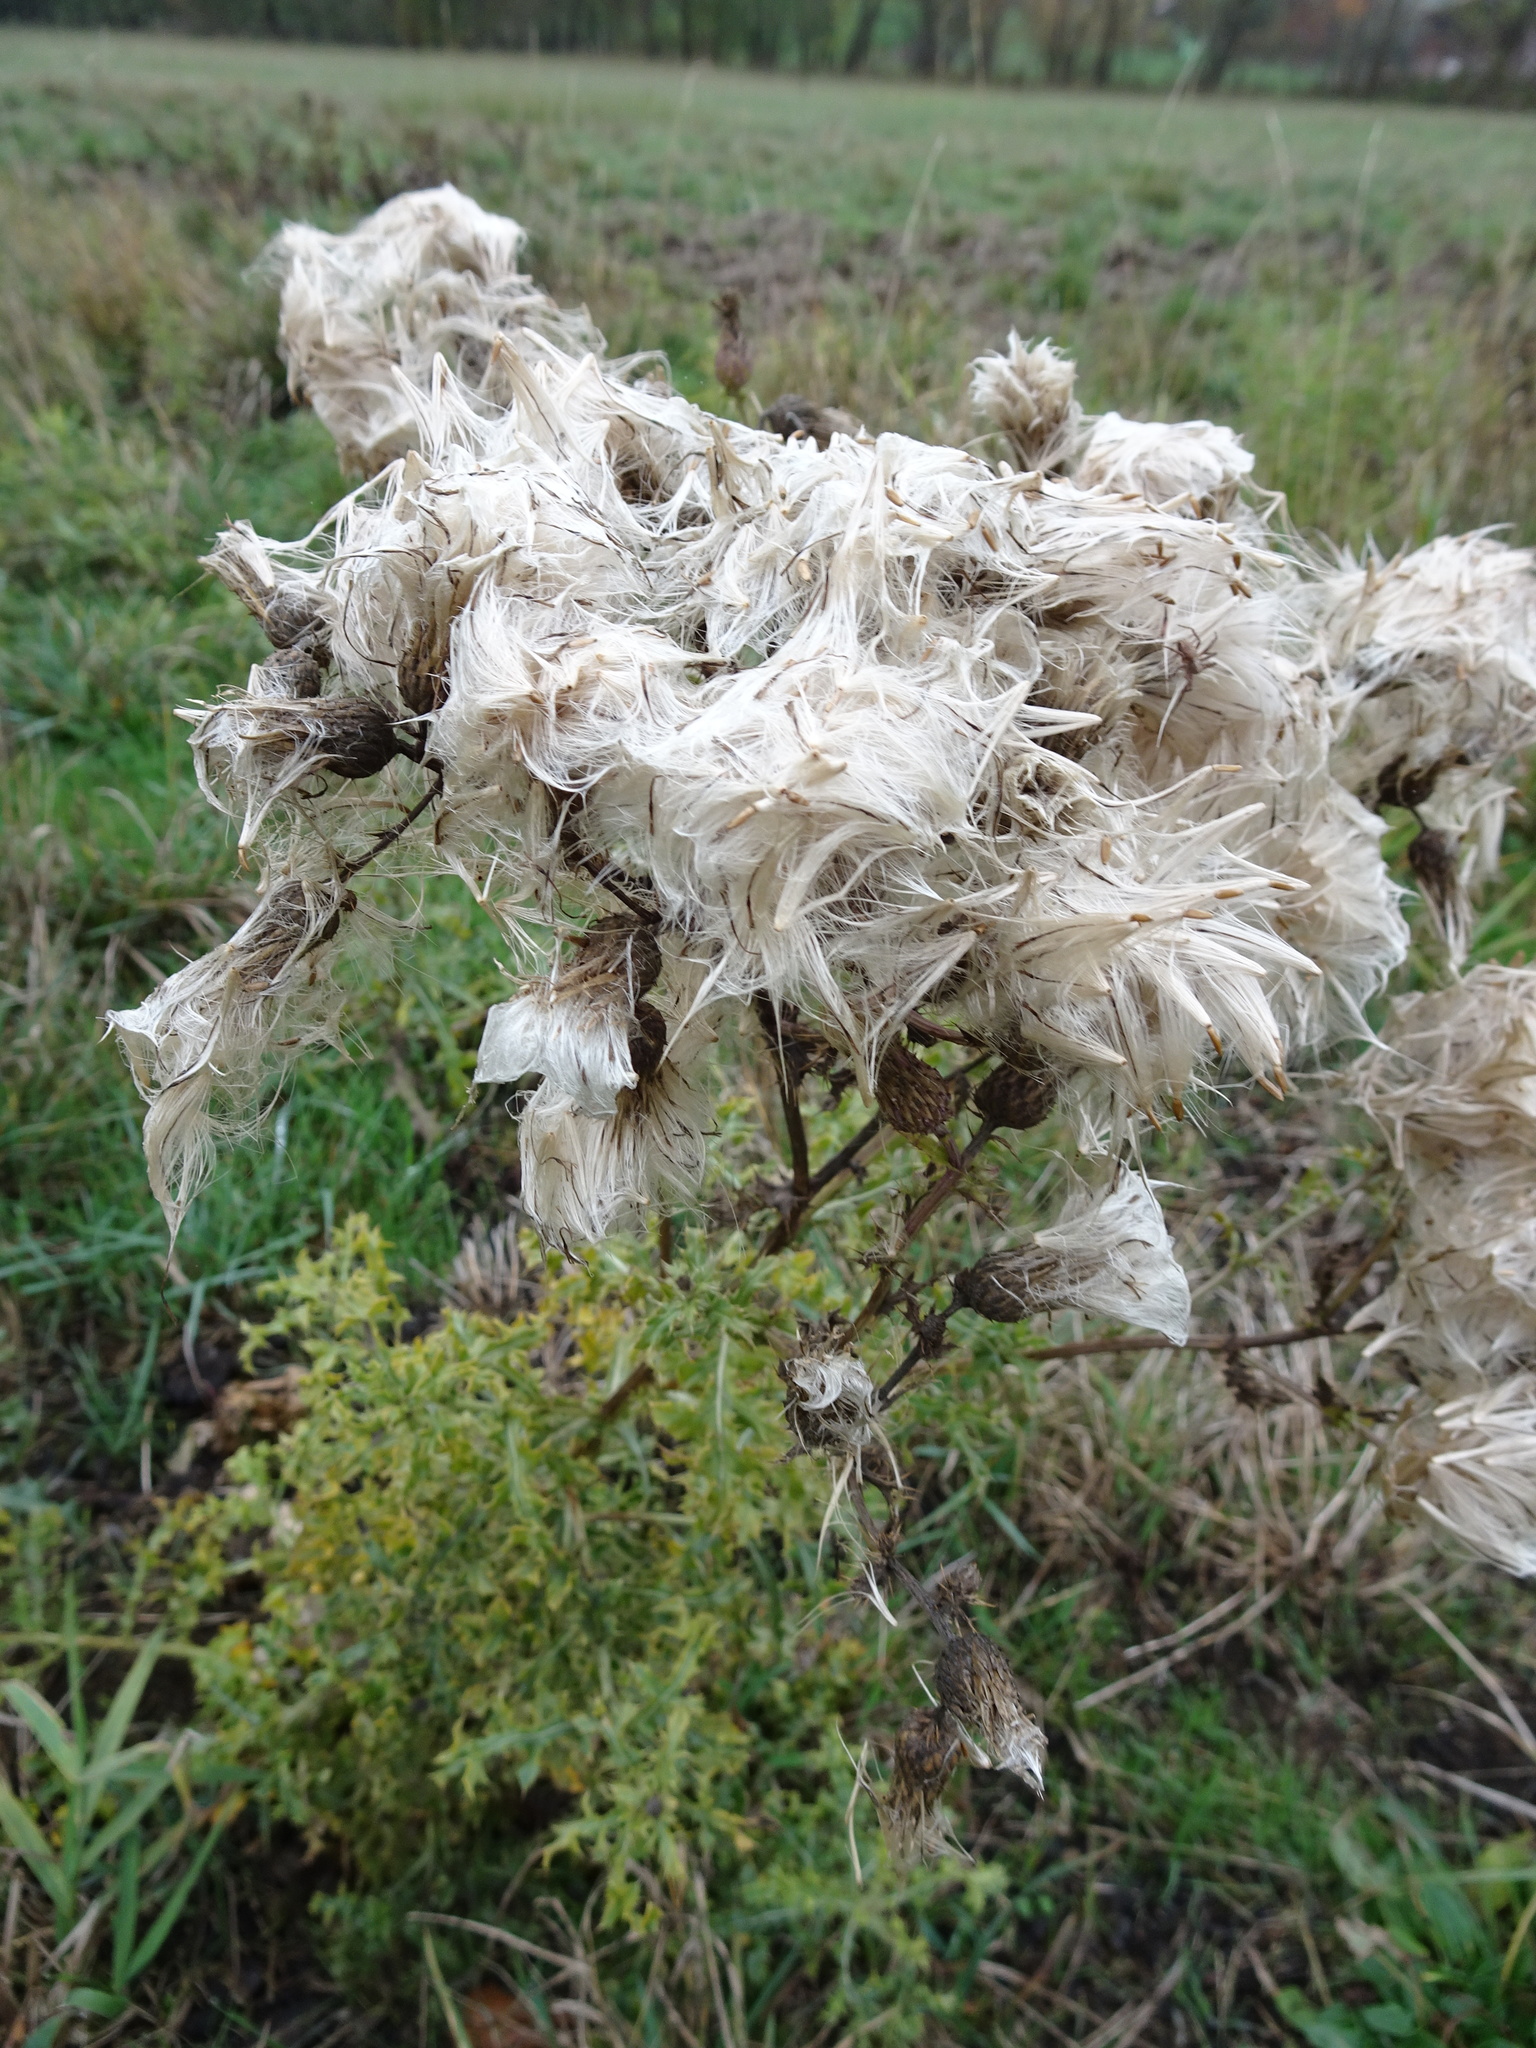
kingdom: Plantae
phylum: Tracheophyta
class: Magnoliopsida
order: Asterales
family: Asteraceae
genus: Cirsium
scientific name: Cirsium arvense
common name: Creeping thistle
